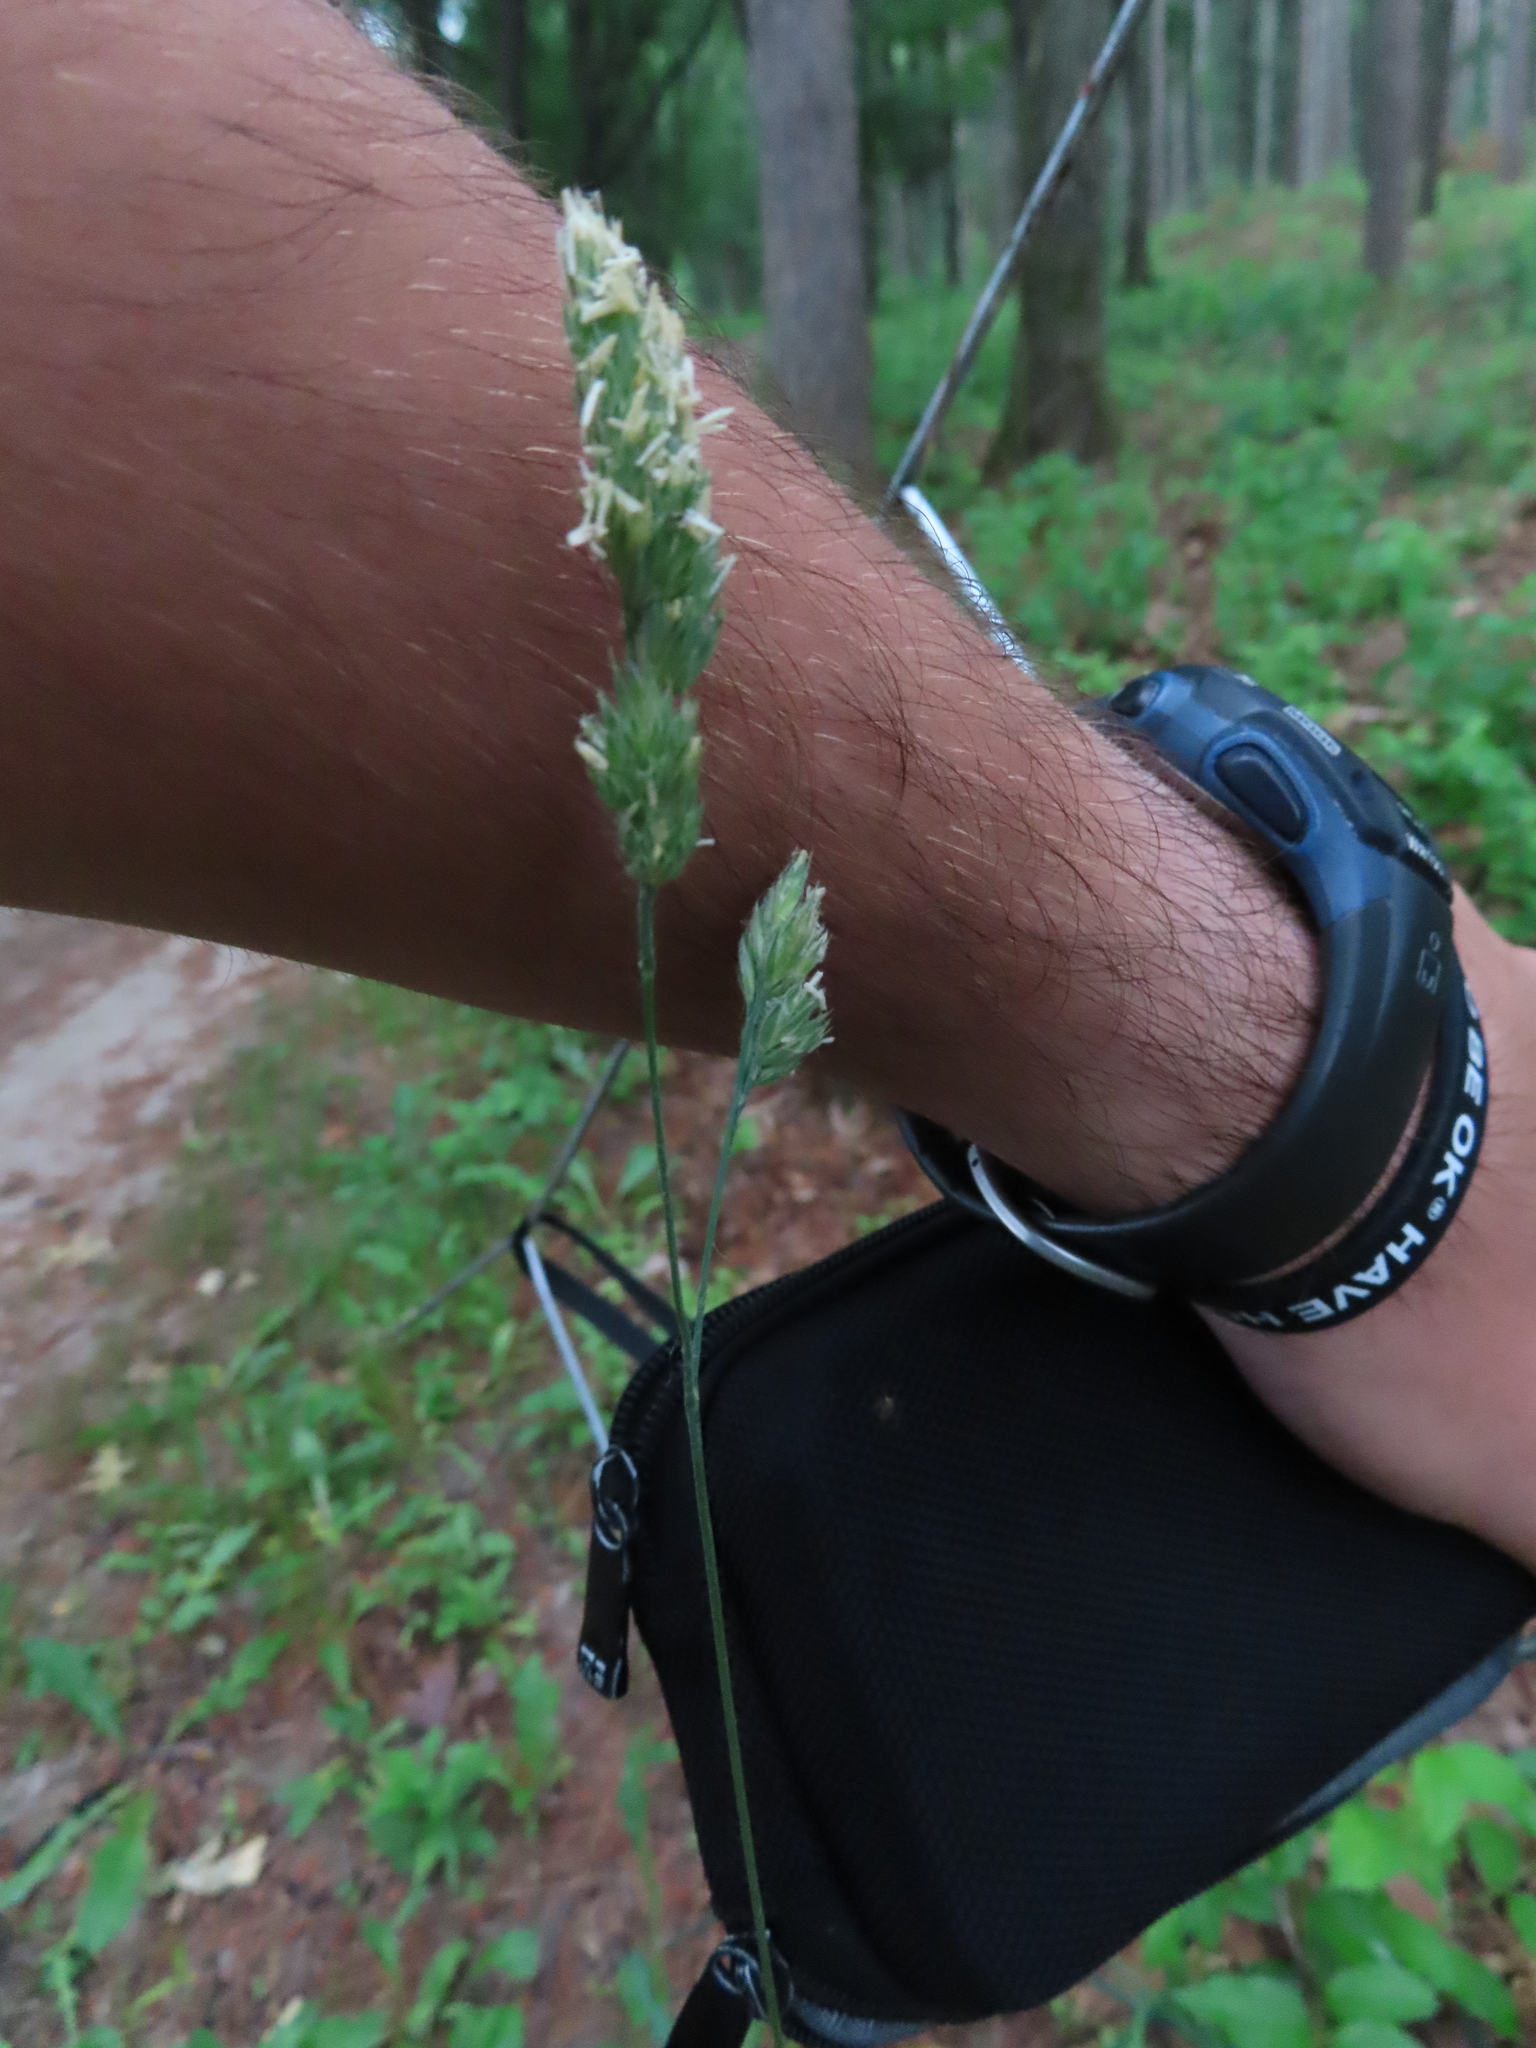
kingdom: Plantae
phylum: Tracheophyta
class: Liliopsida
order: Poales
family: Poaceae
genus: Dactylis
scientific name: Dactylis glomerata
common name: Orchardgrass
